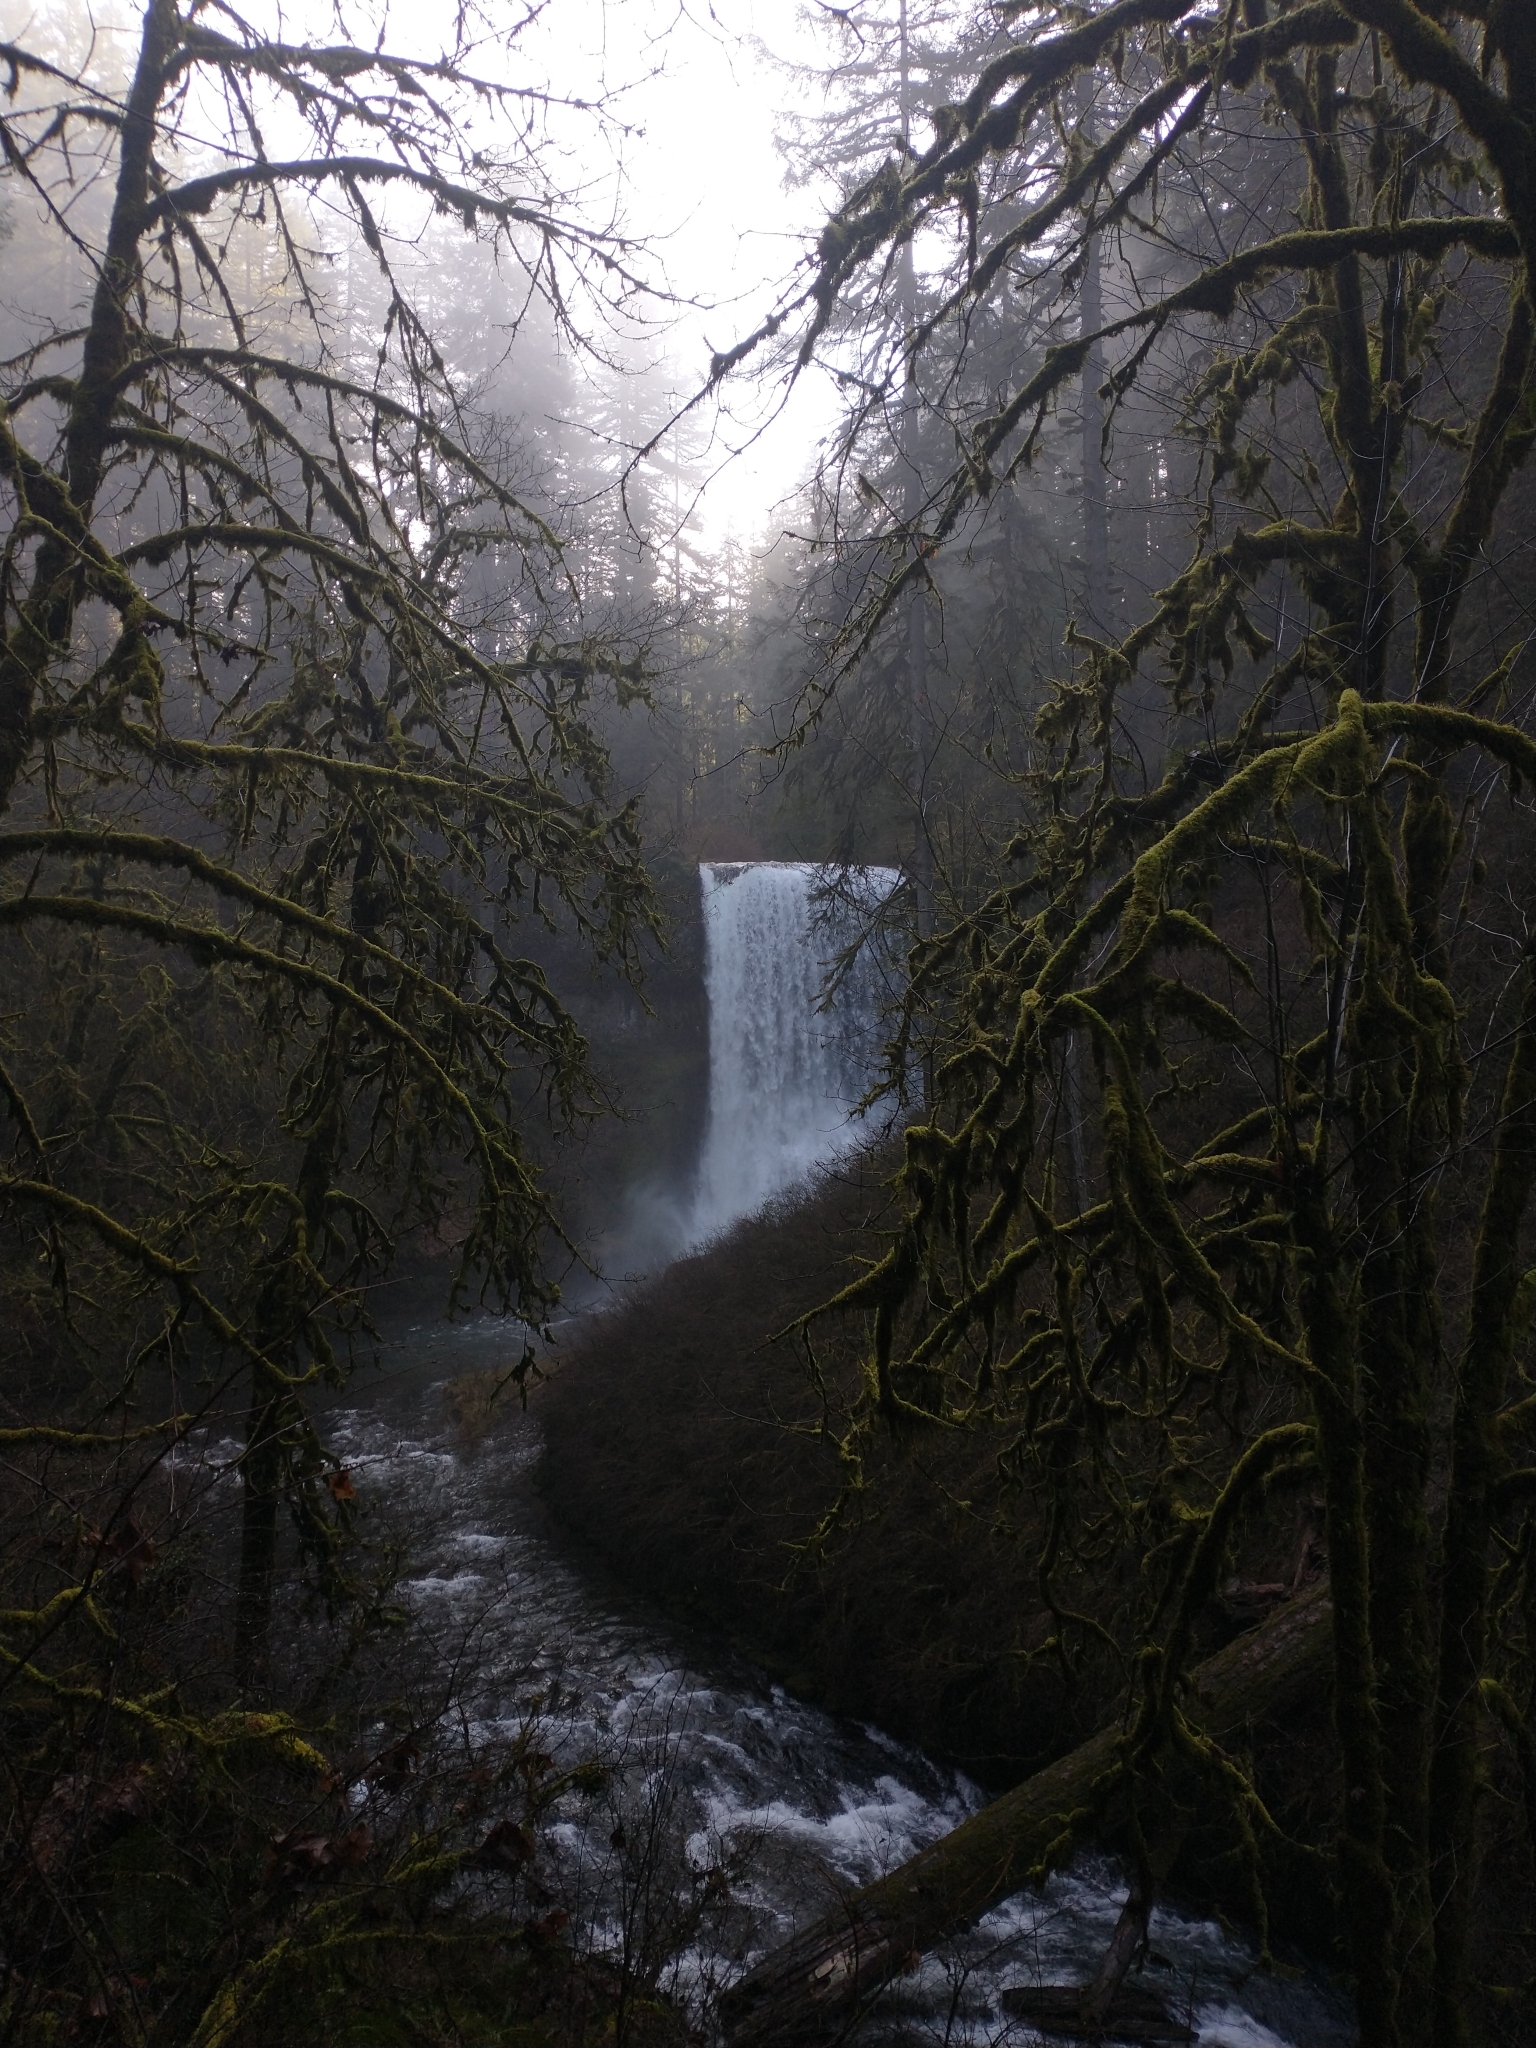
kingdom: Plantae
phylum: Tracheophyta
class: Magnoliopsida
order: Sapindales
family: Sapindaceae
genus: Acer
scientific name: Acer macrophyllum
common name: Oregon maple
